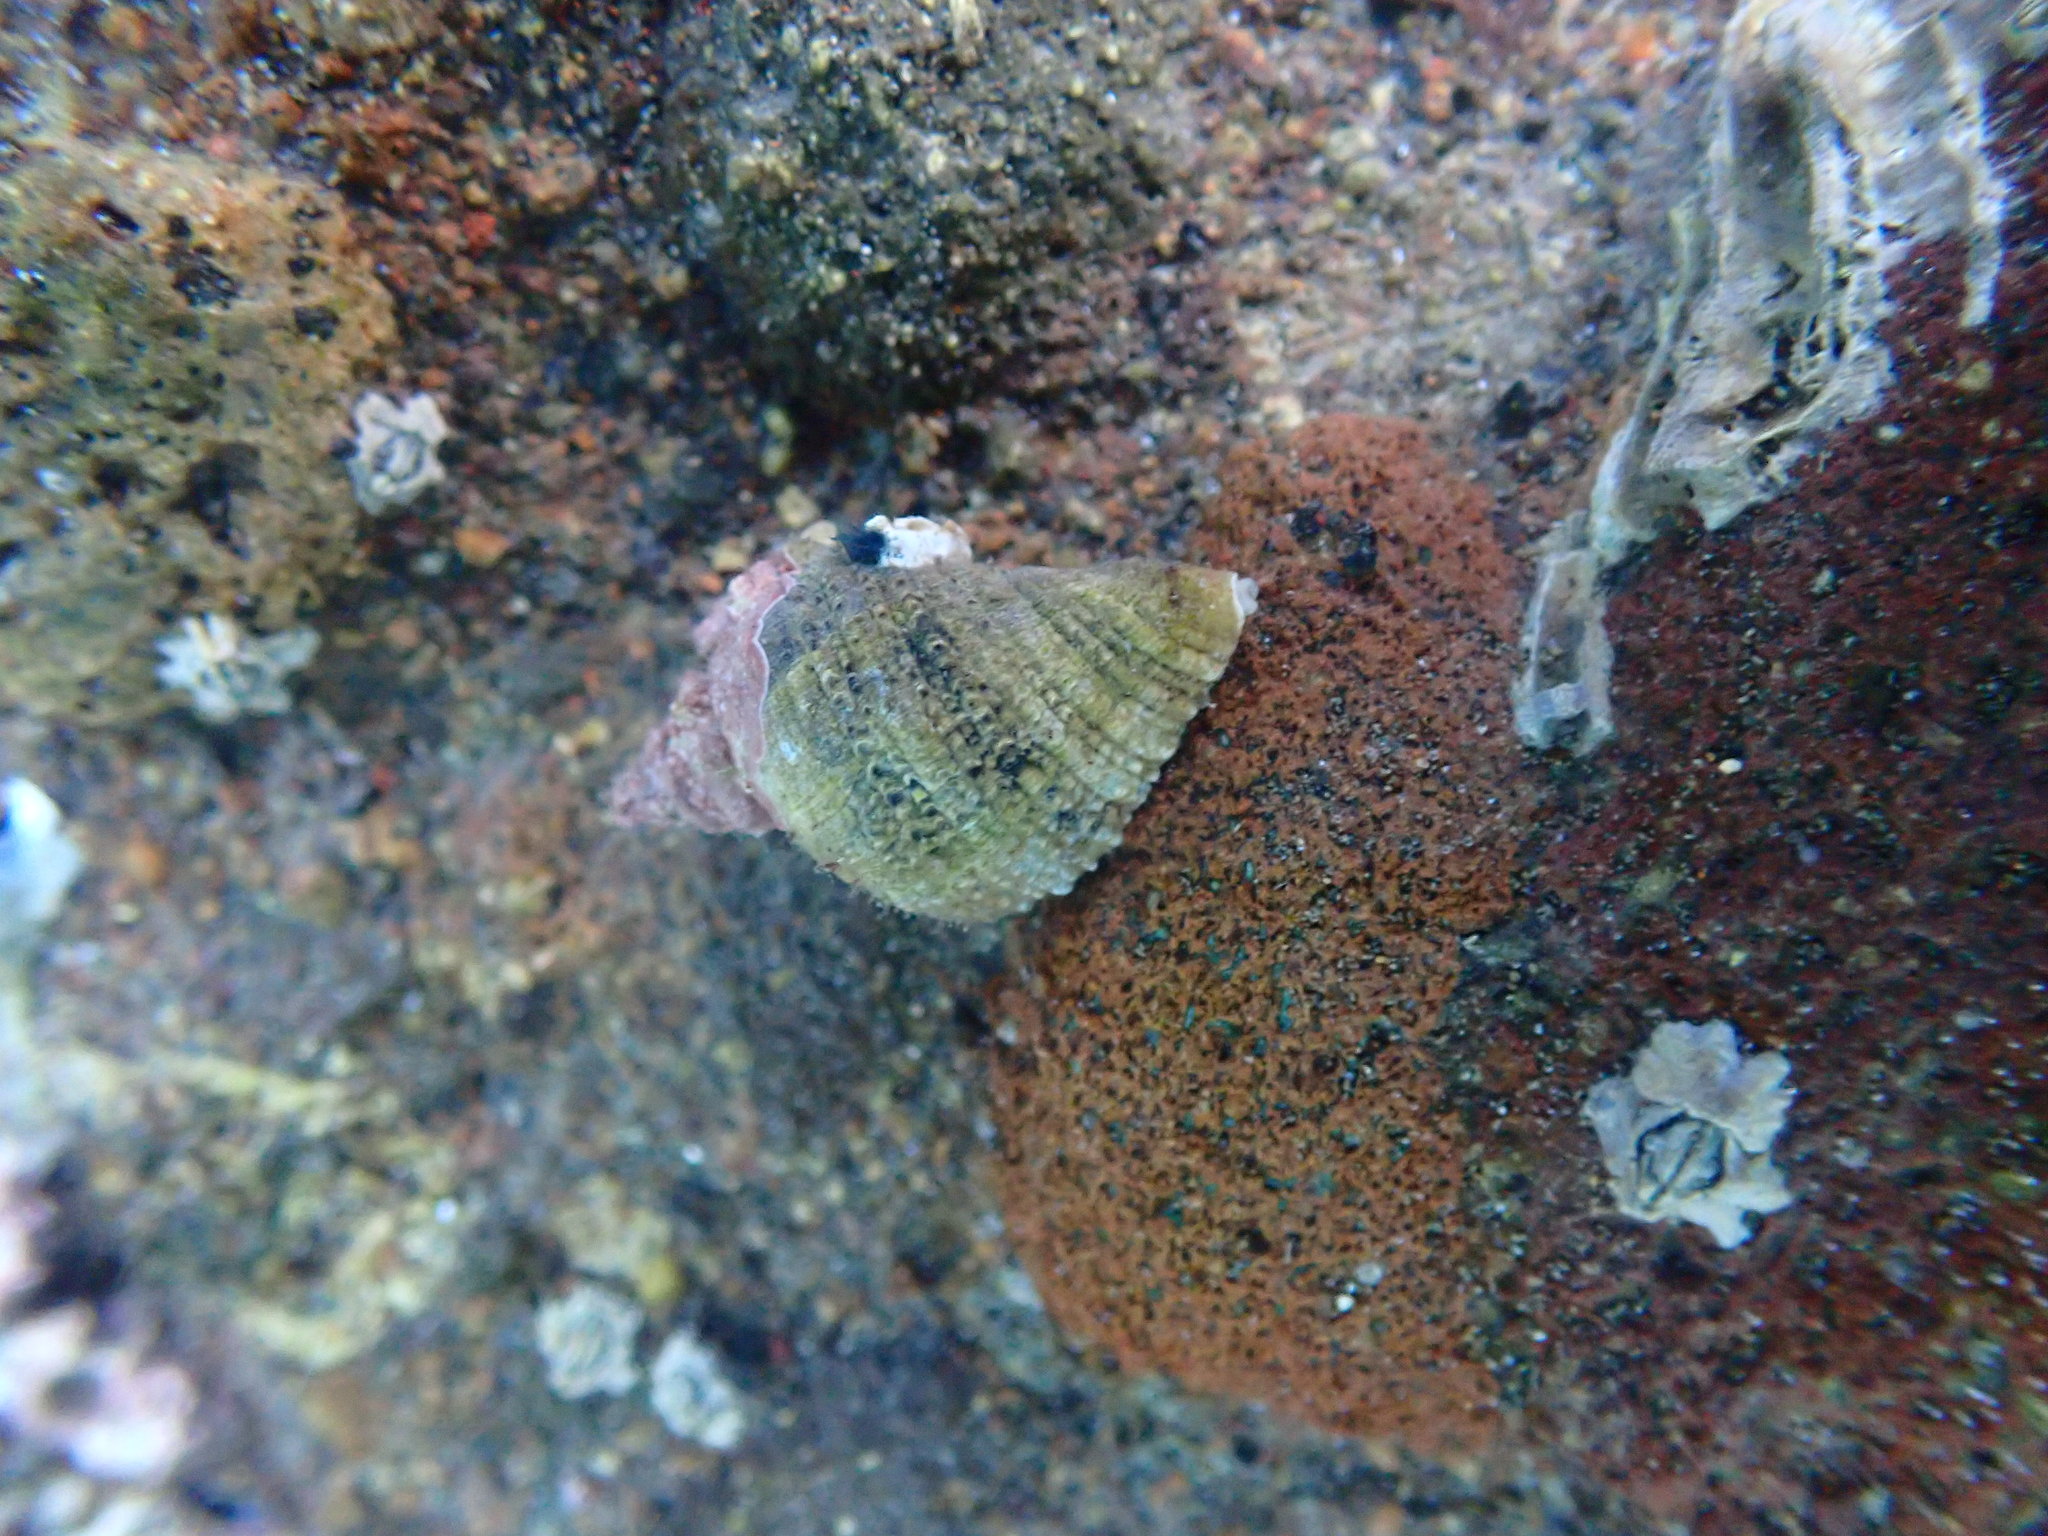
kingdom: Animalia
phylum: Mollusca
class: Gastropoda
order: Neogastropoda
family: Muricidae
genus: Haustrum
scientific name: Haustrum haustorium
